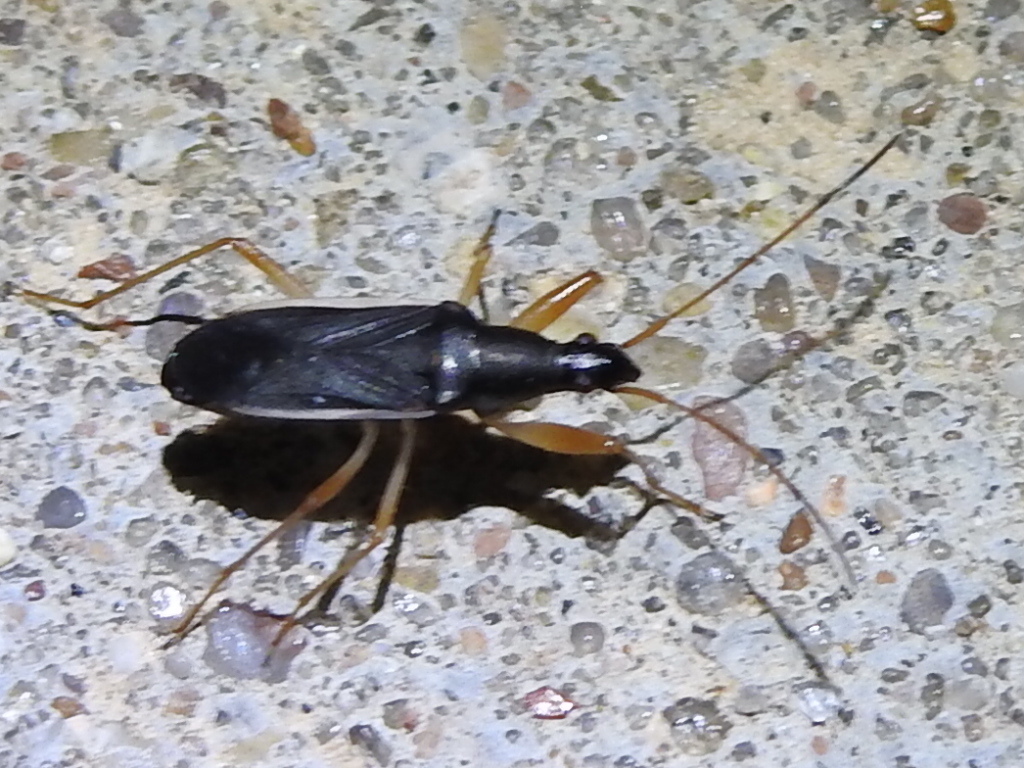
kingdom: Animalia
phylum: Arthropoda
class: Insecta
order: Hemiptera
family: Rhyparochromidae
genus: Cnemodus
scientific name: Cnemodus mavortius
